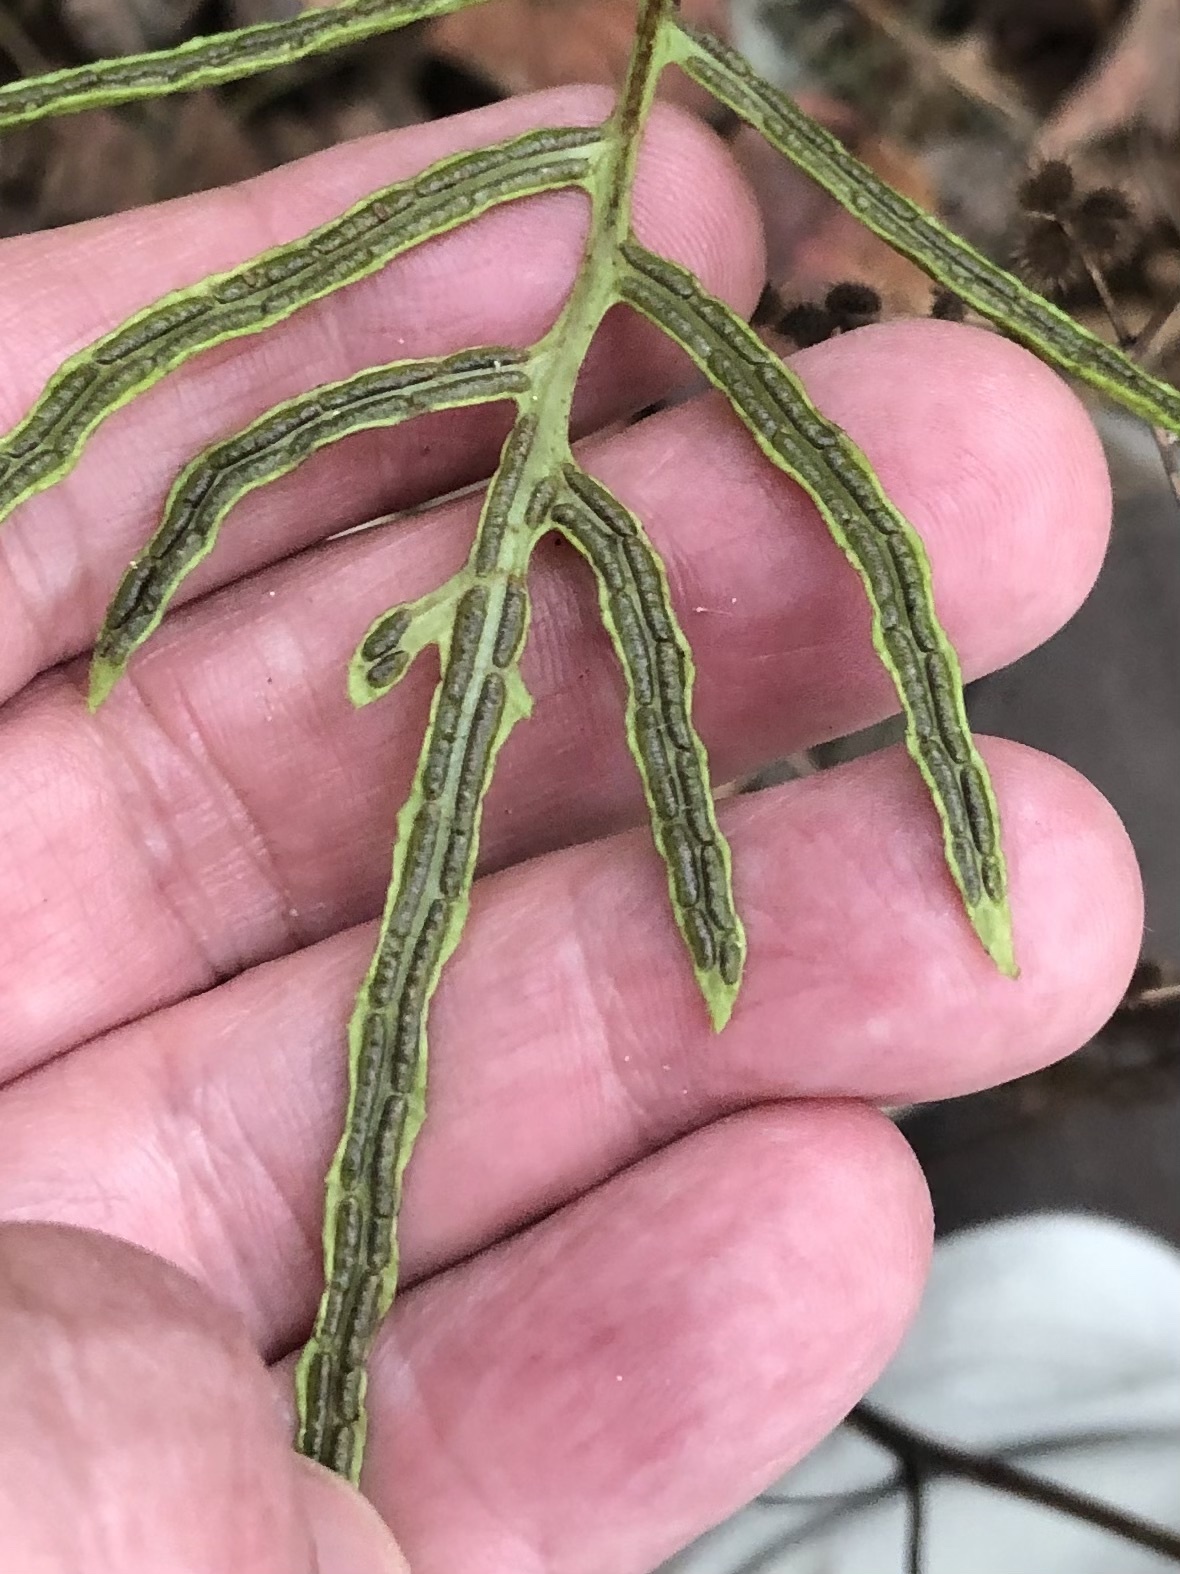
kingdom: Plantae
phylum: Tracheophyta
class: Polypodiopsida
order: Polypodiales
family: Blechnaceae
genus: Lorinseria
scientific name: Lorinseria areolata
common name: Dwarf chain fern
